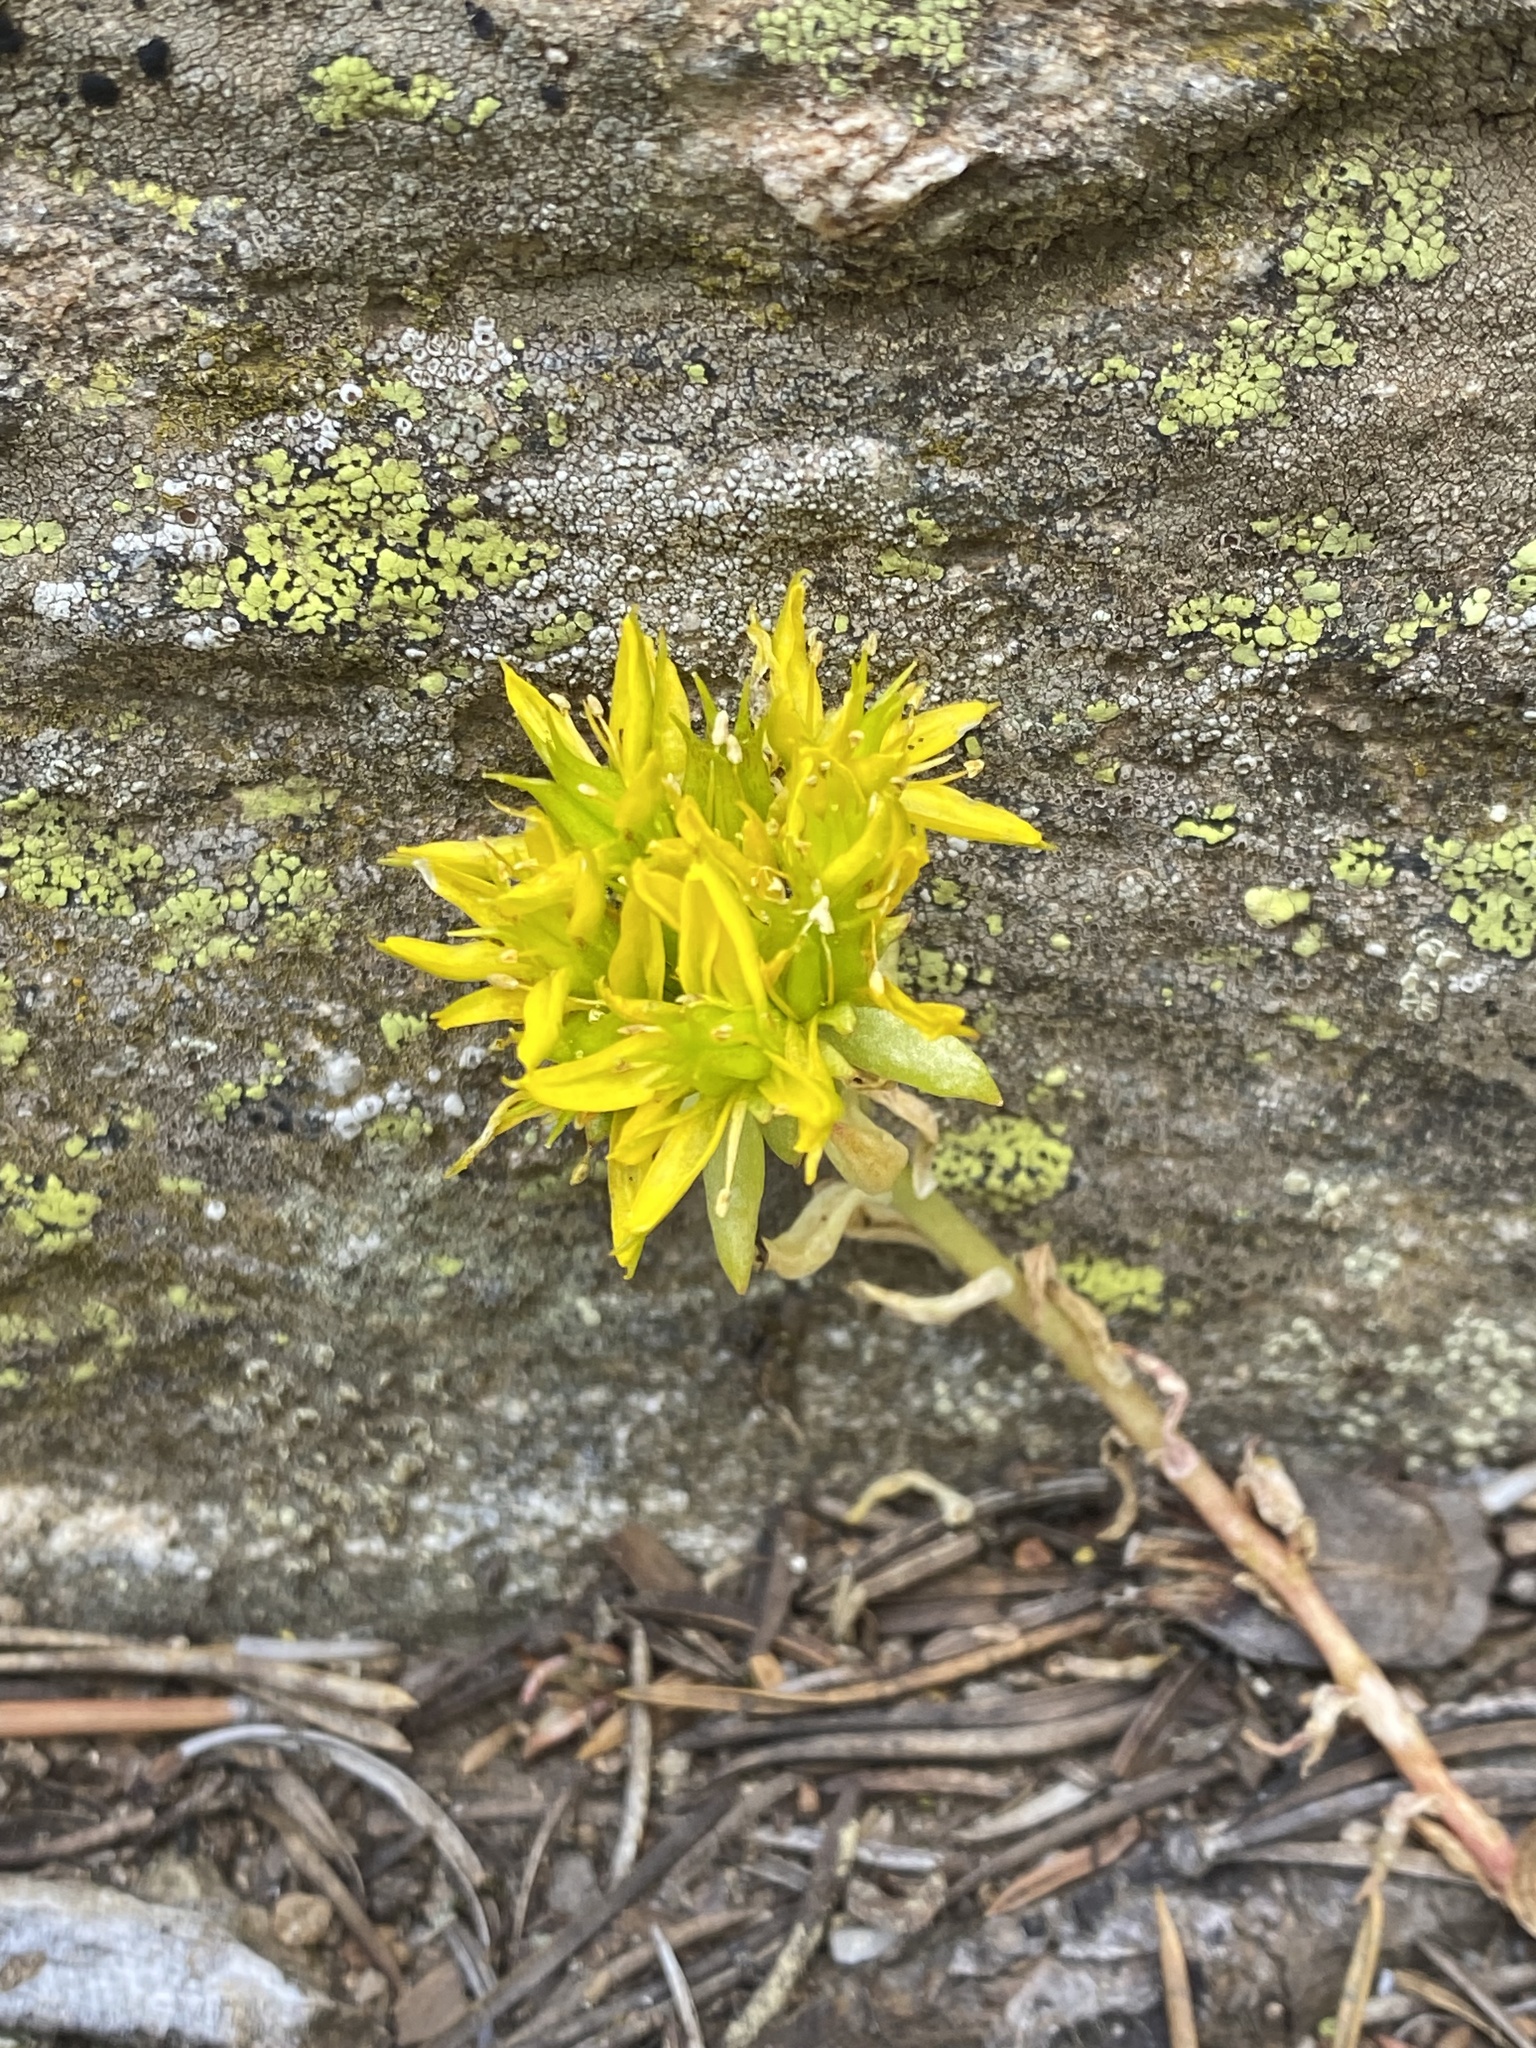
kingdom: Plantae
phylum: Tracheophyta
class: Magnoliopsida
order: Saxifragales
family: Crassulaceae
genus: Sedum
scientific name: Sedum lanceolatum
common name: Common stonecrop
